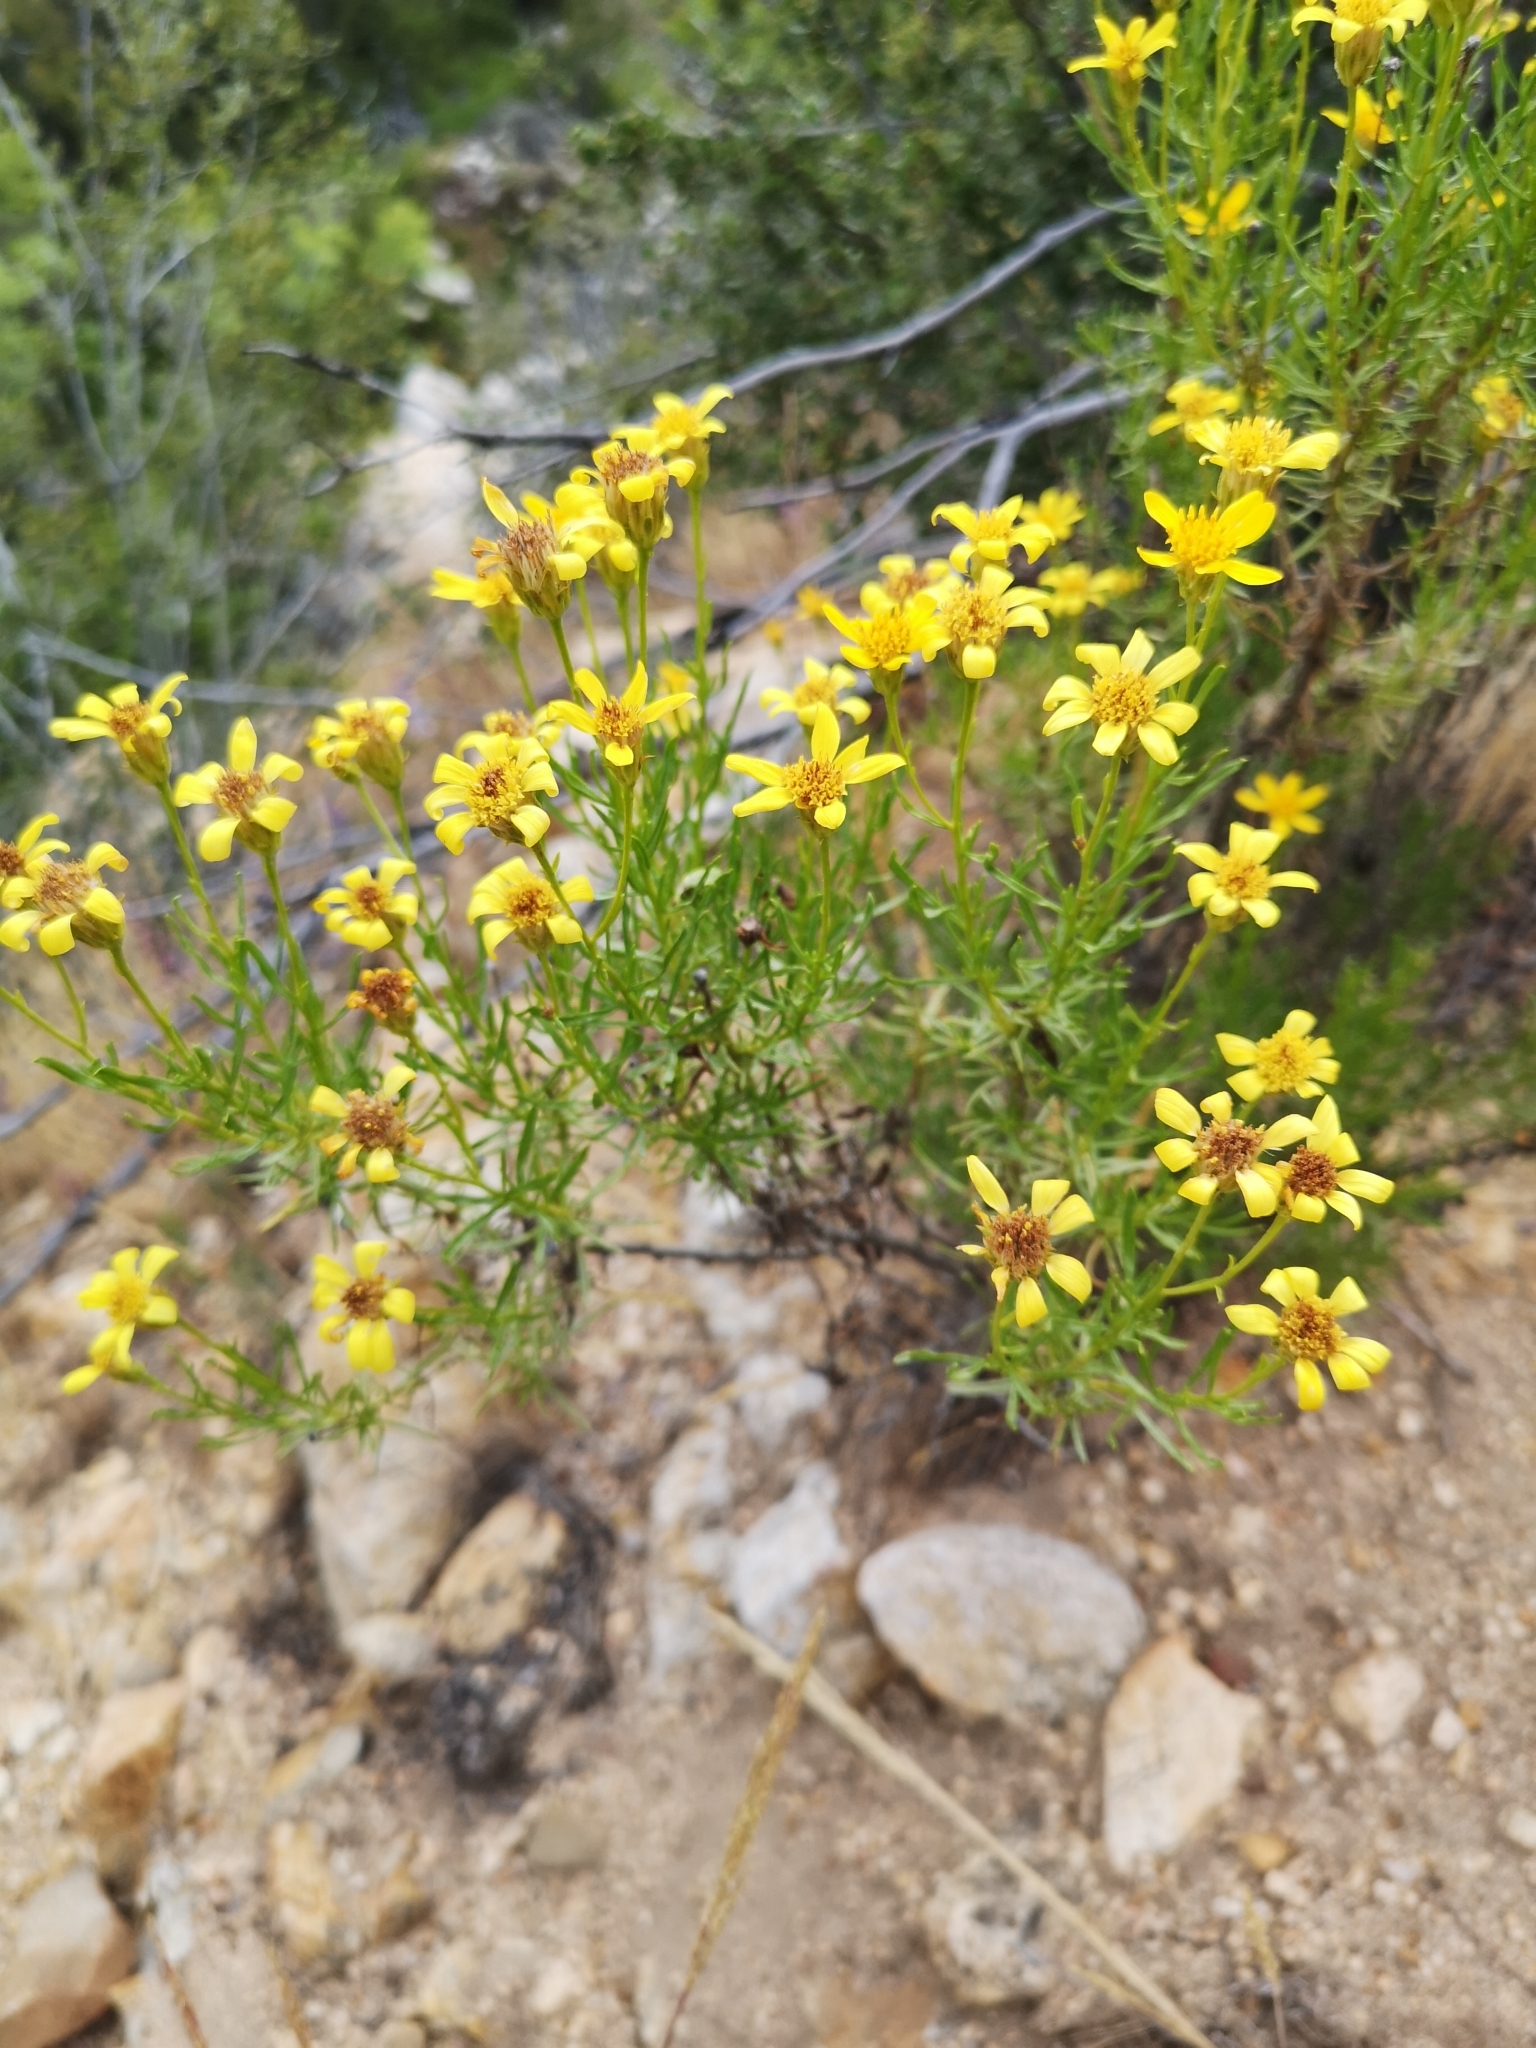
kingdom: Plantae
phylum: Tracheophyta
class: Magnoliopsida
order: Asterales
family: Asteraceae
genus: Ericameria
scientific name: Ericameria linearifolia
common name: Interior goldenbush
